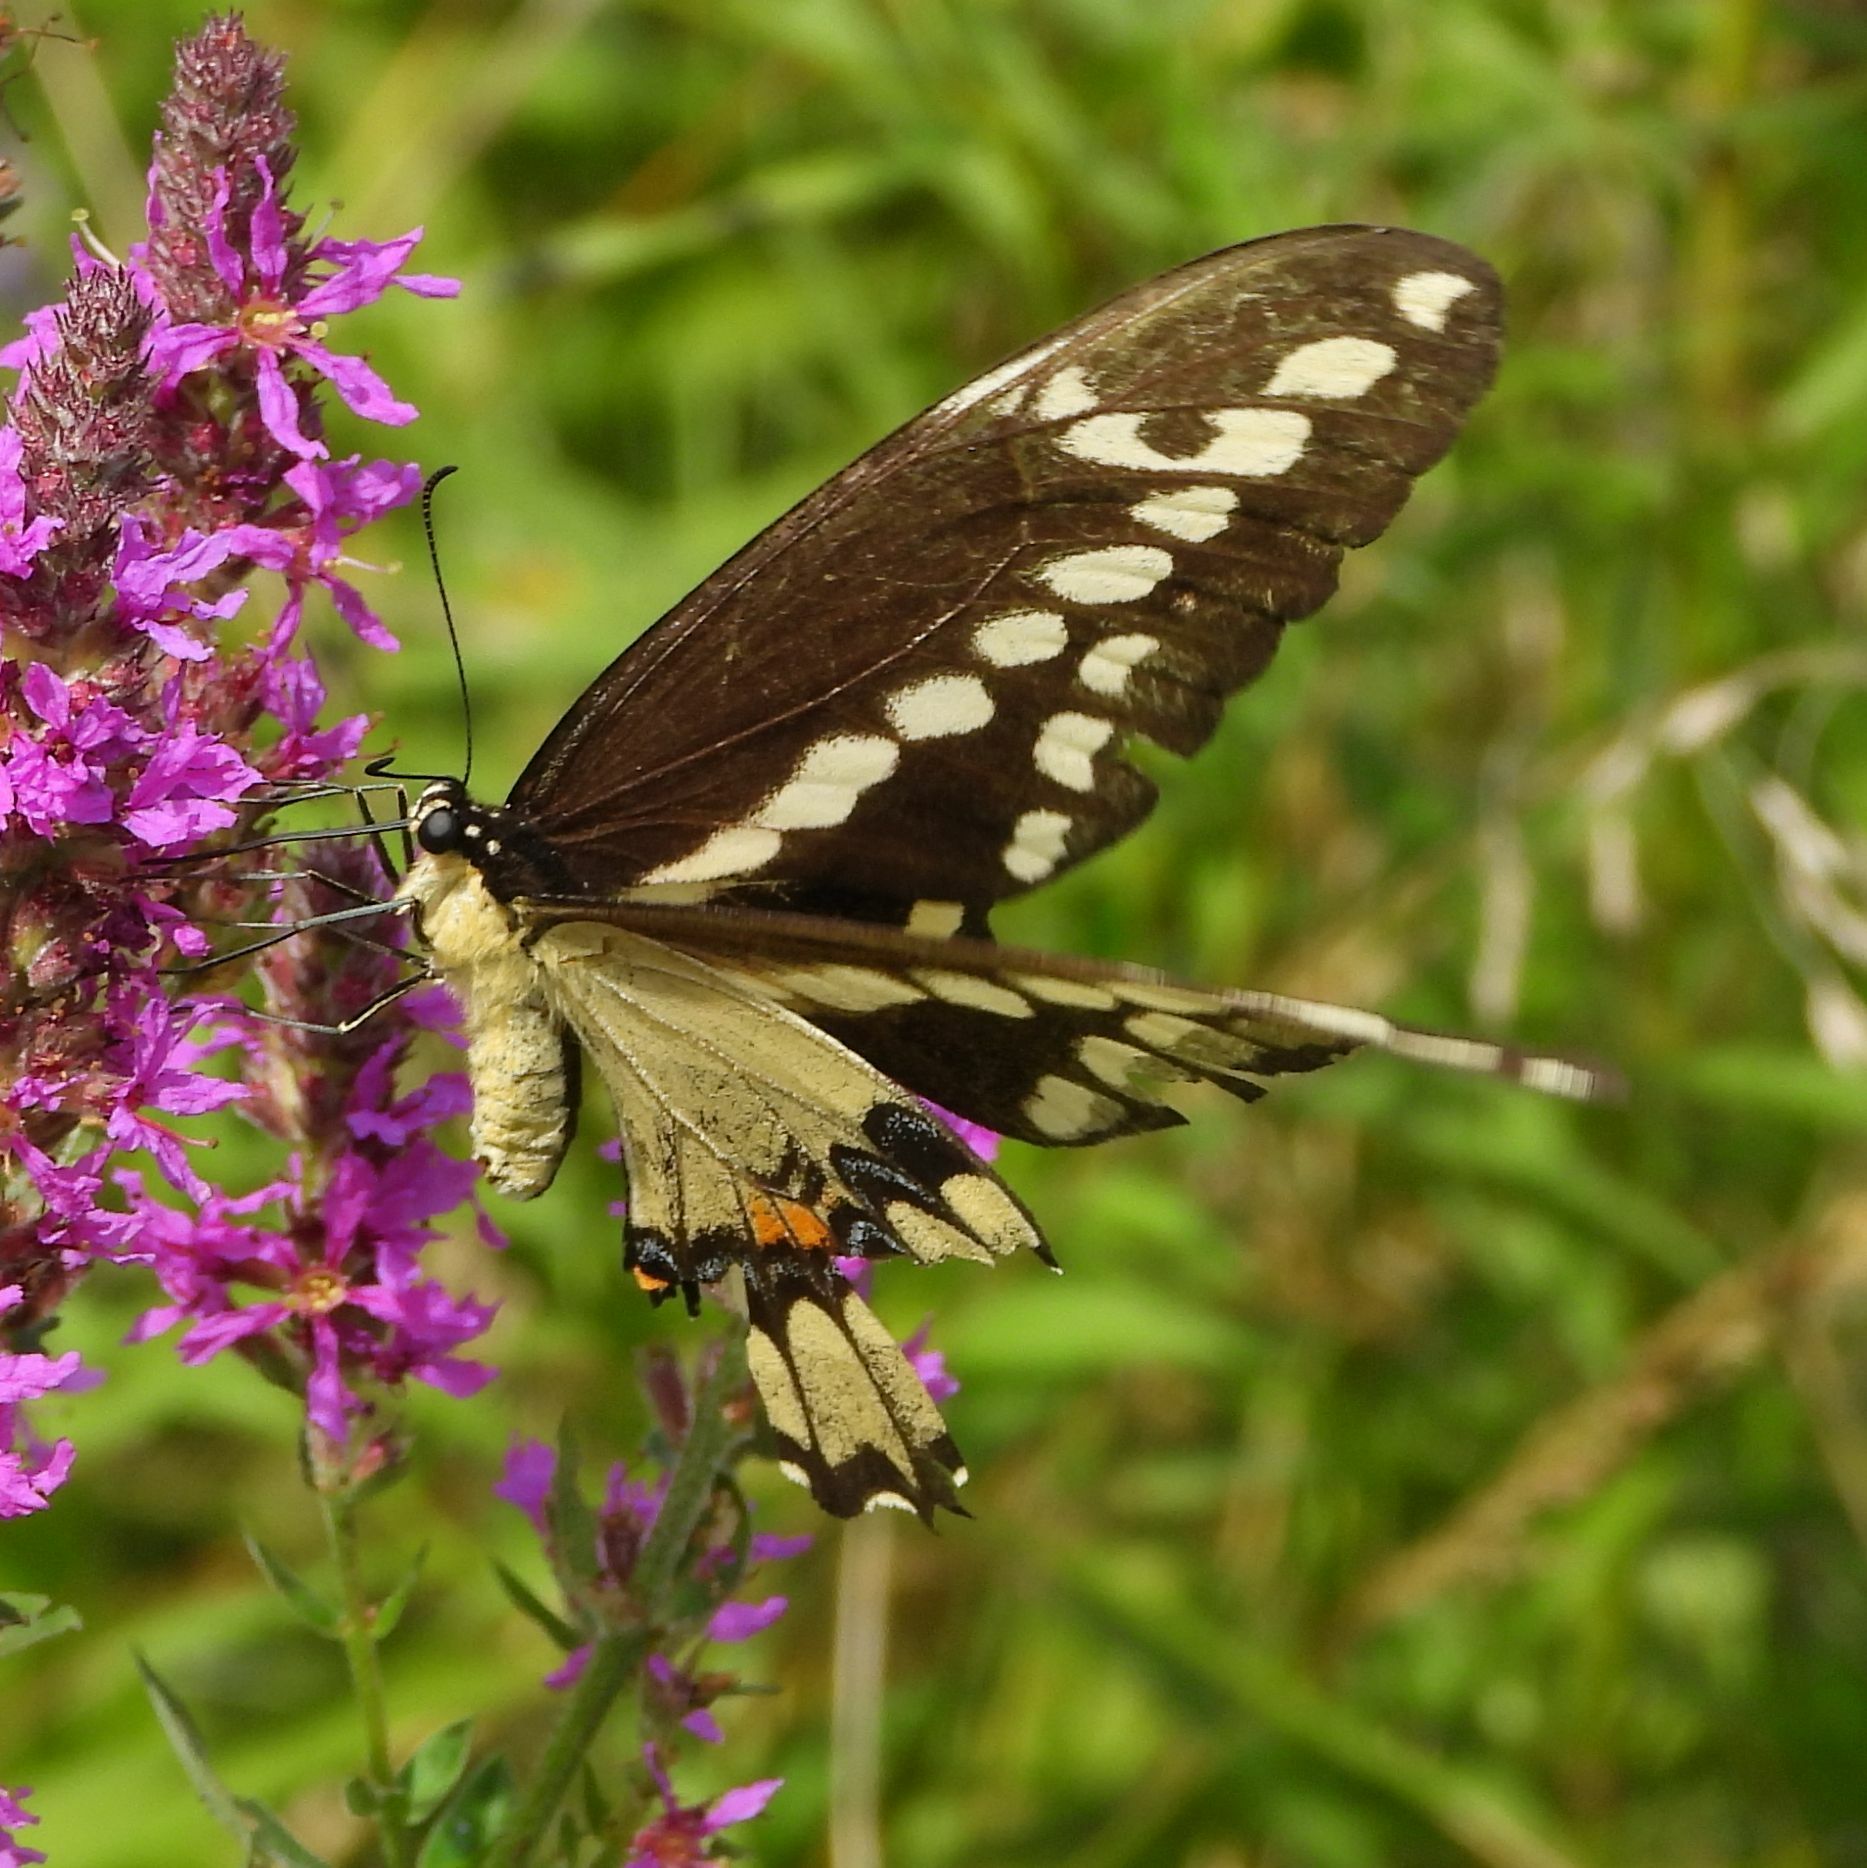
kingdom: Animalia
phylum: Arthropoda
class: Insecta
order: Lepidoptera
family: Papilionidae
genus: Papilio
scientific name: Papilio cresphontes
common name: Giant swallowtail
